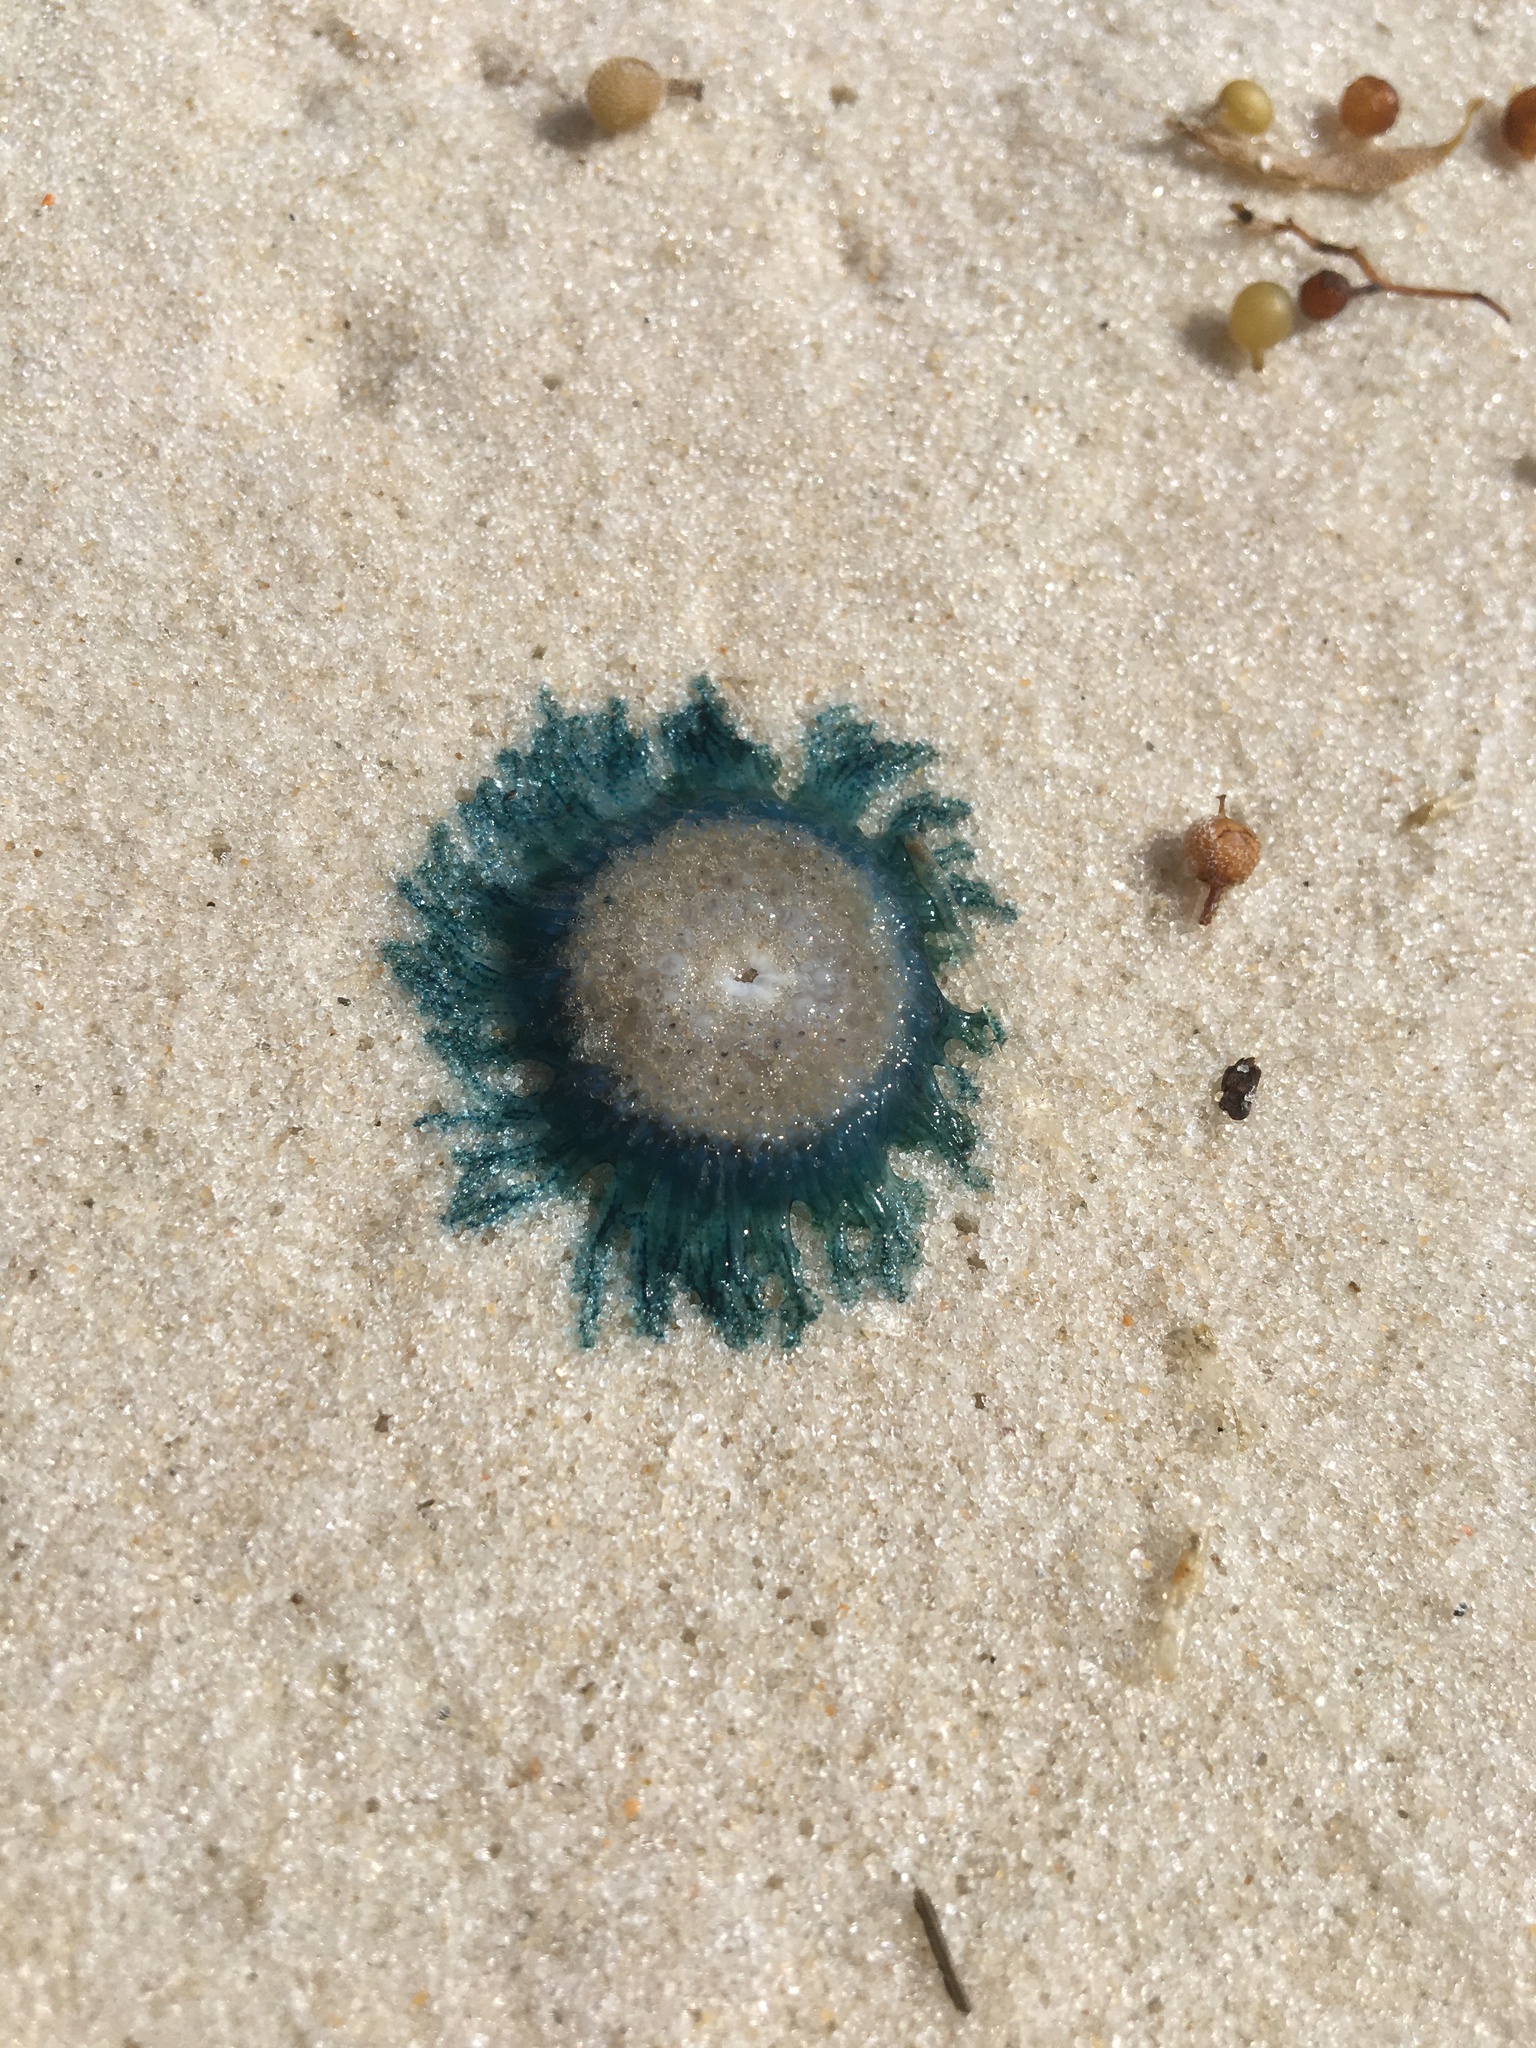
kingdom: Animalia
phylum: Cnidaria
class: Hydrozoa
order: Anthoathecata
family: Porpitidae
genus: Porpita
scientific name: Porpita porpita
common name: Blue button
